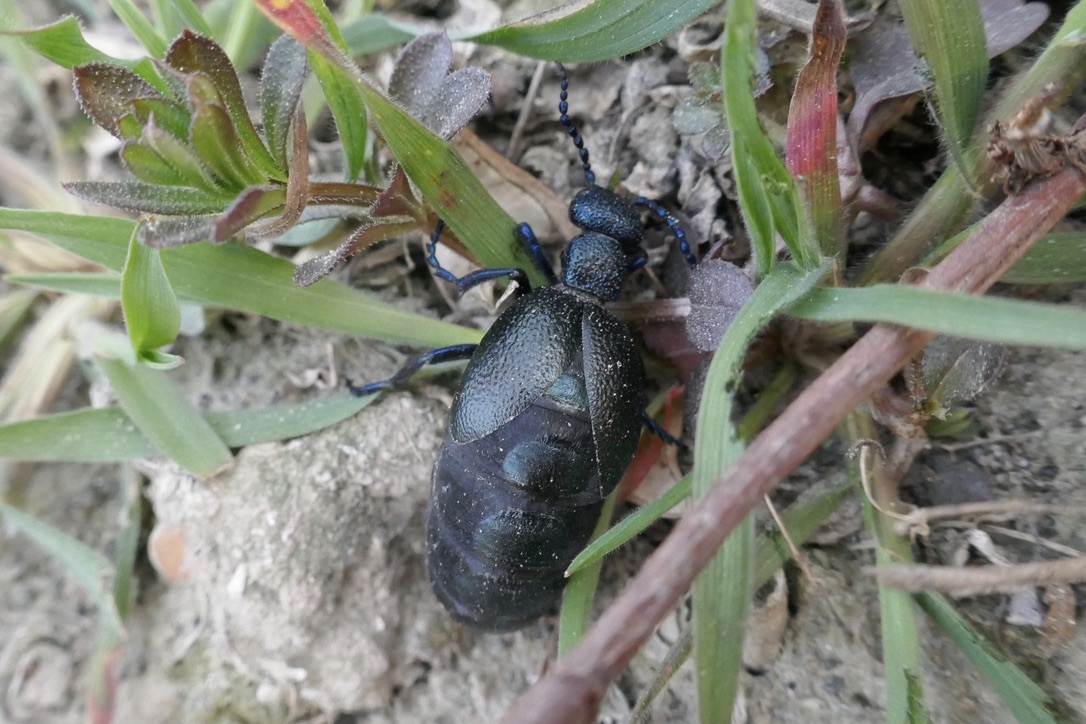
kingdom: Animalia
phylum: Arthropoda
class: Insecta
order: Coleoptera
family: Meloidae
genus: Meloe
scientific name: Meloe proscarabaeus
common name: Black oil-beetle
